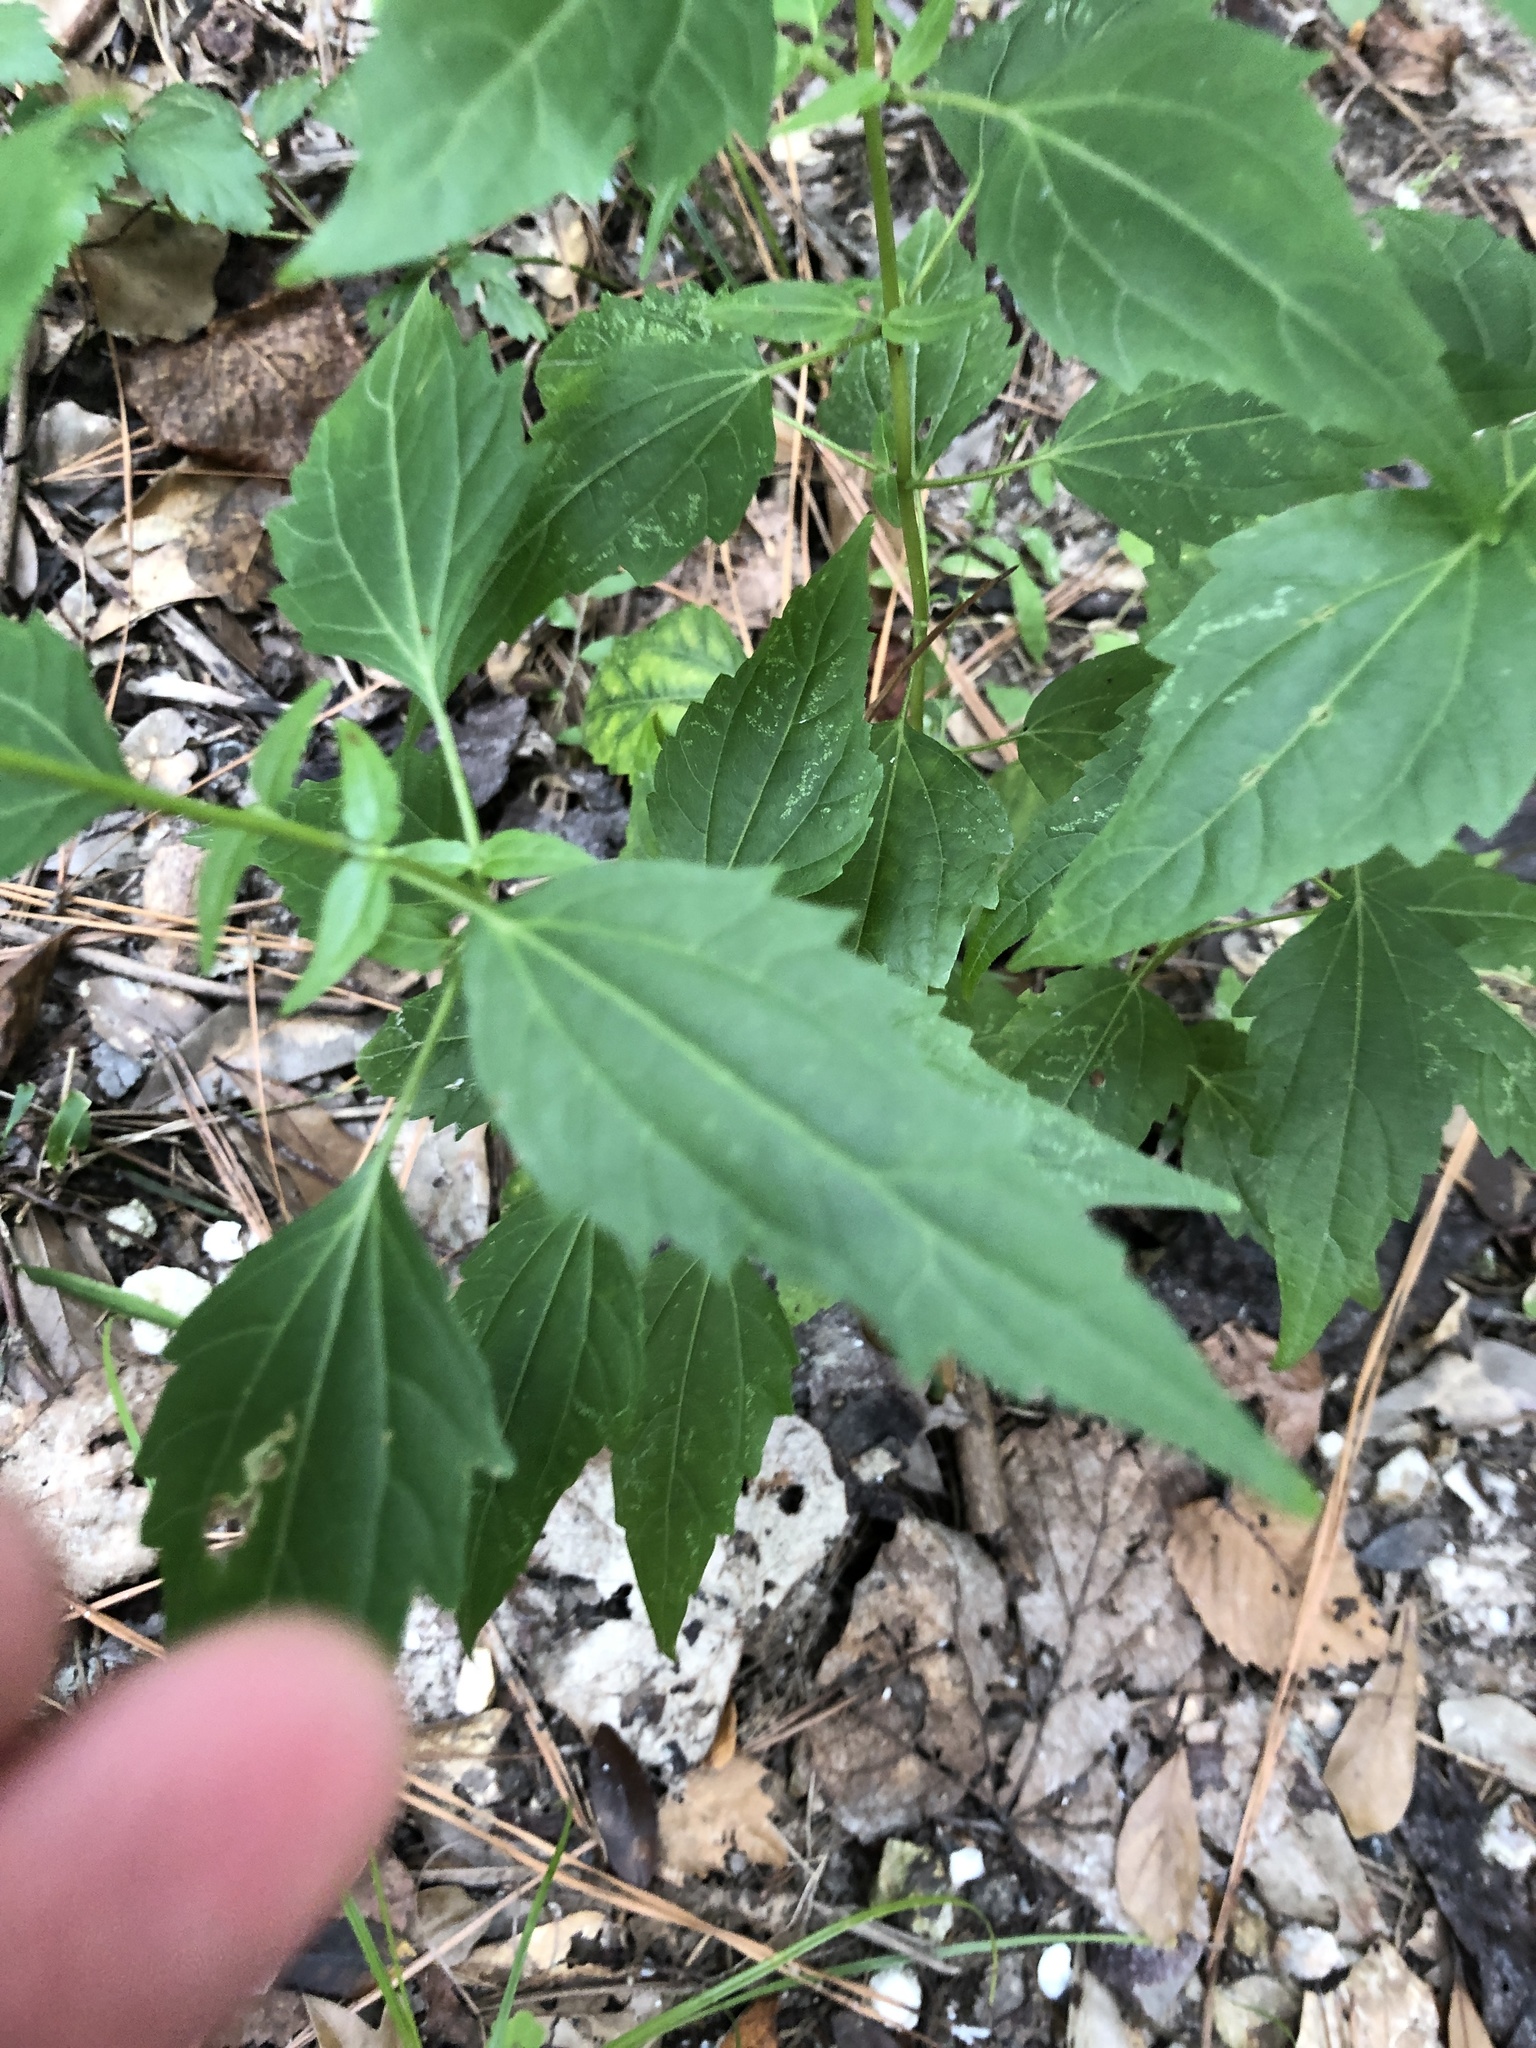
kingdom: Plantae
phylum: Tracheophyta
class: Magnoliopsida
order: Asterales
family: Asteraceae
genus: Ageratina
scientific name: Ageratina altissima
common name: White snakeroot
